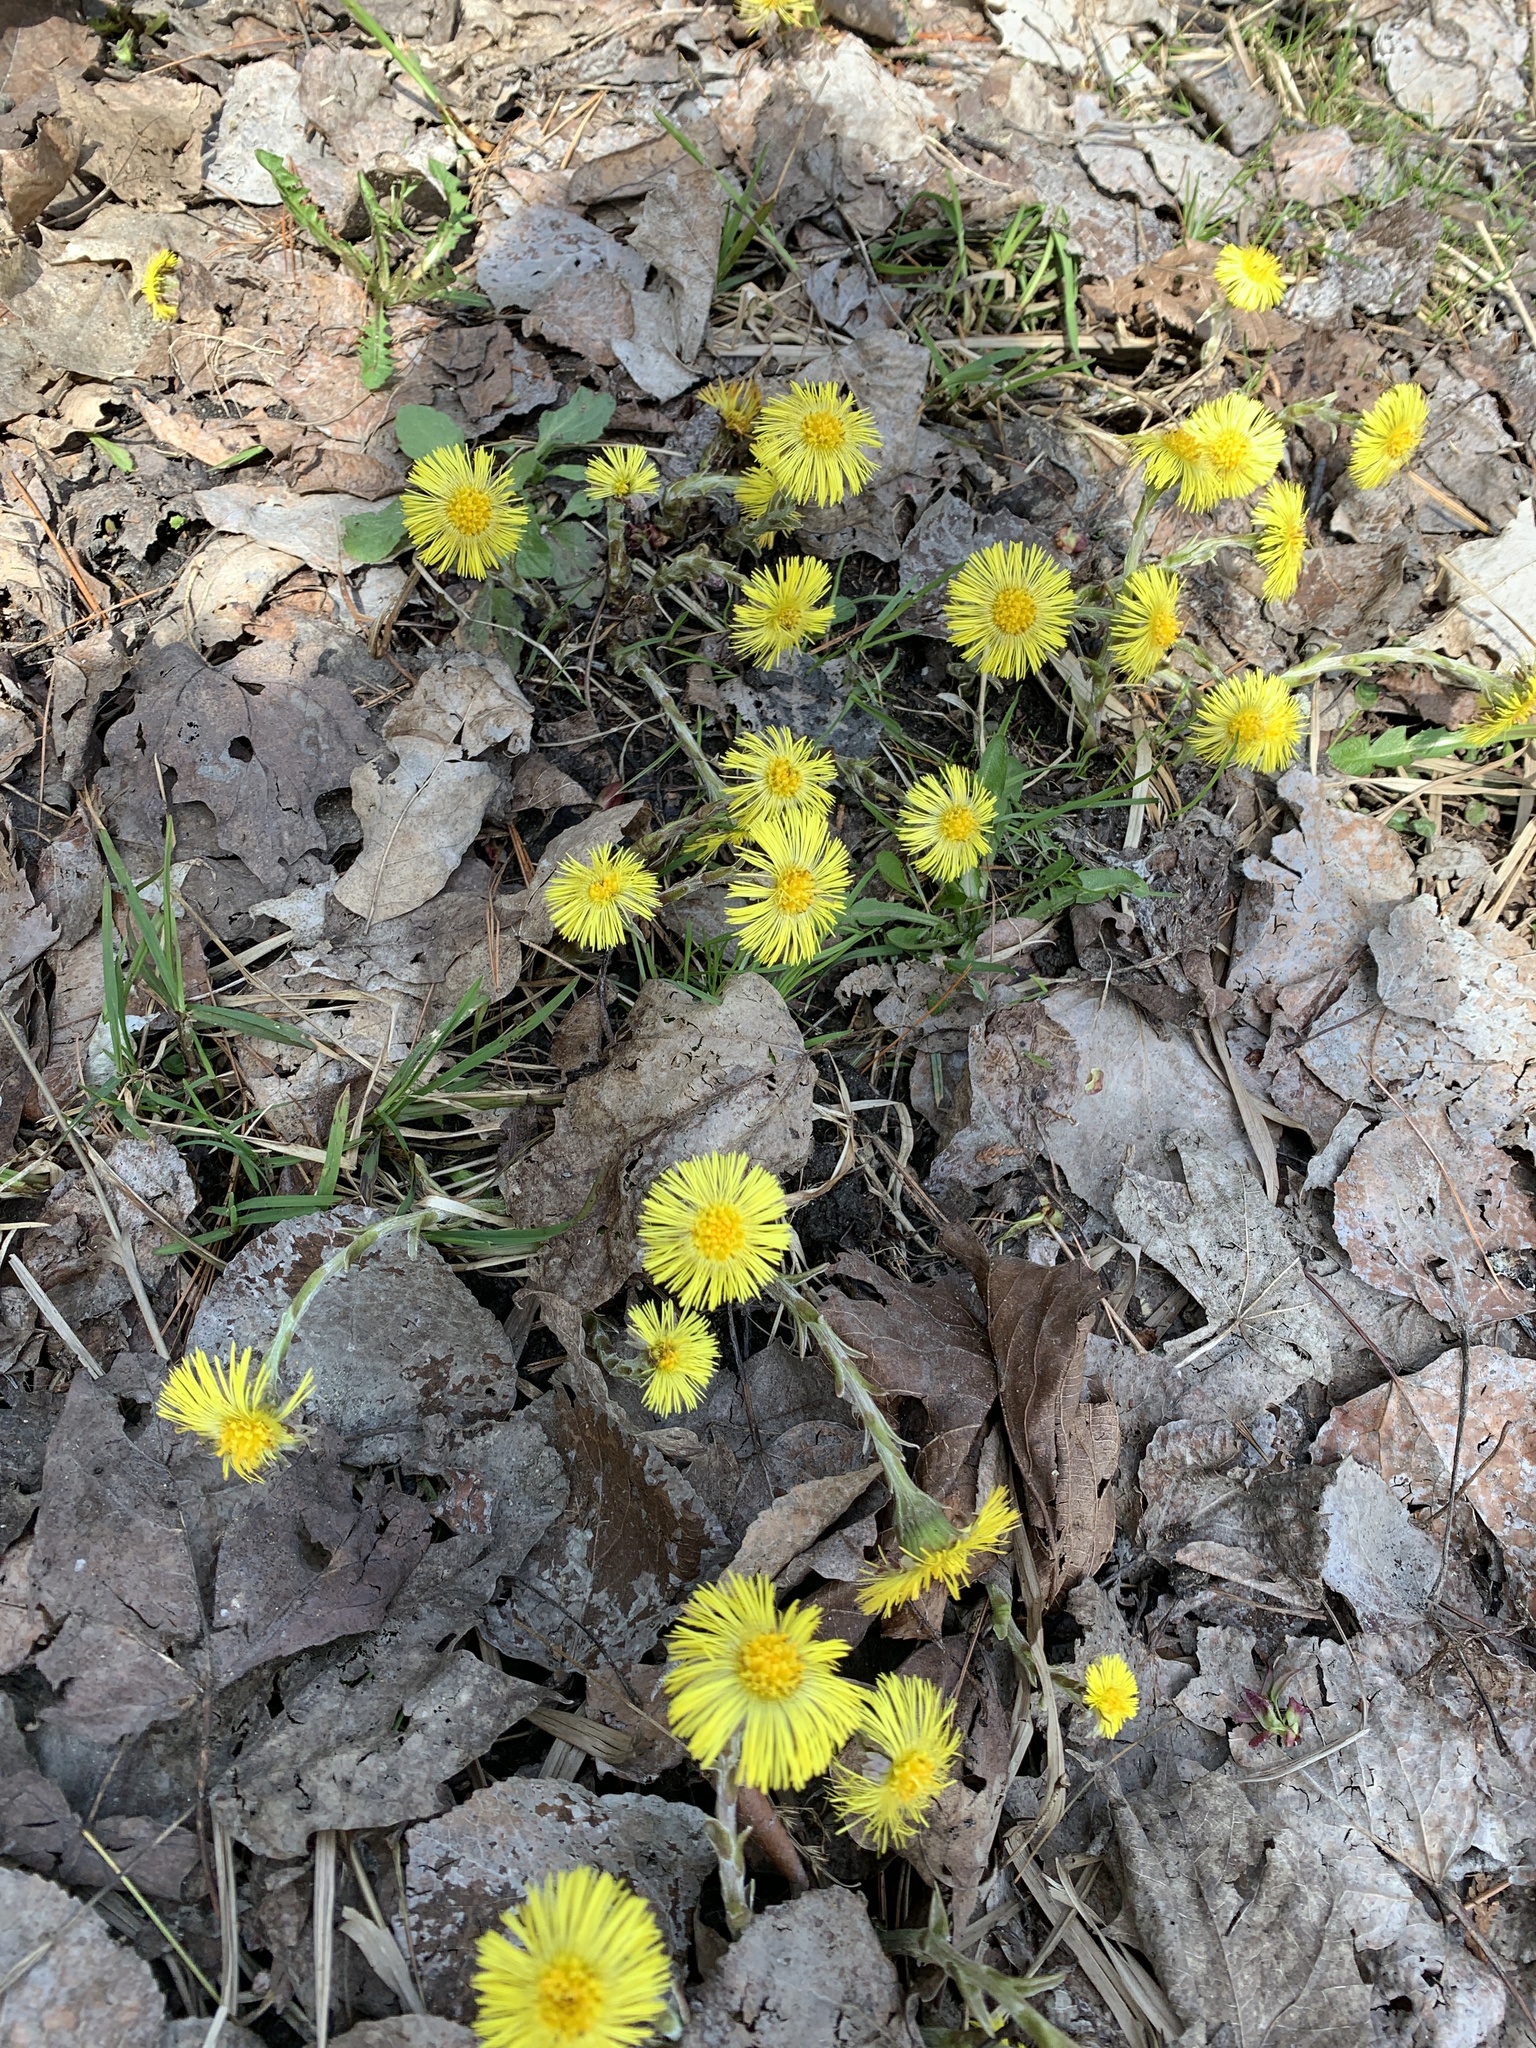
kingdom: Plantae
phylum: Tracheophyta
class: Magnoliopsida
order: Asterales
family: Asteraceae
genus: Tussilago
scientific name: Tussilago farfara
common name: Coltsfoot
